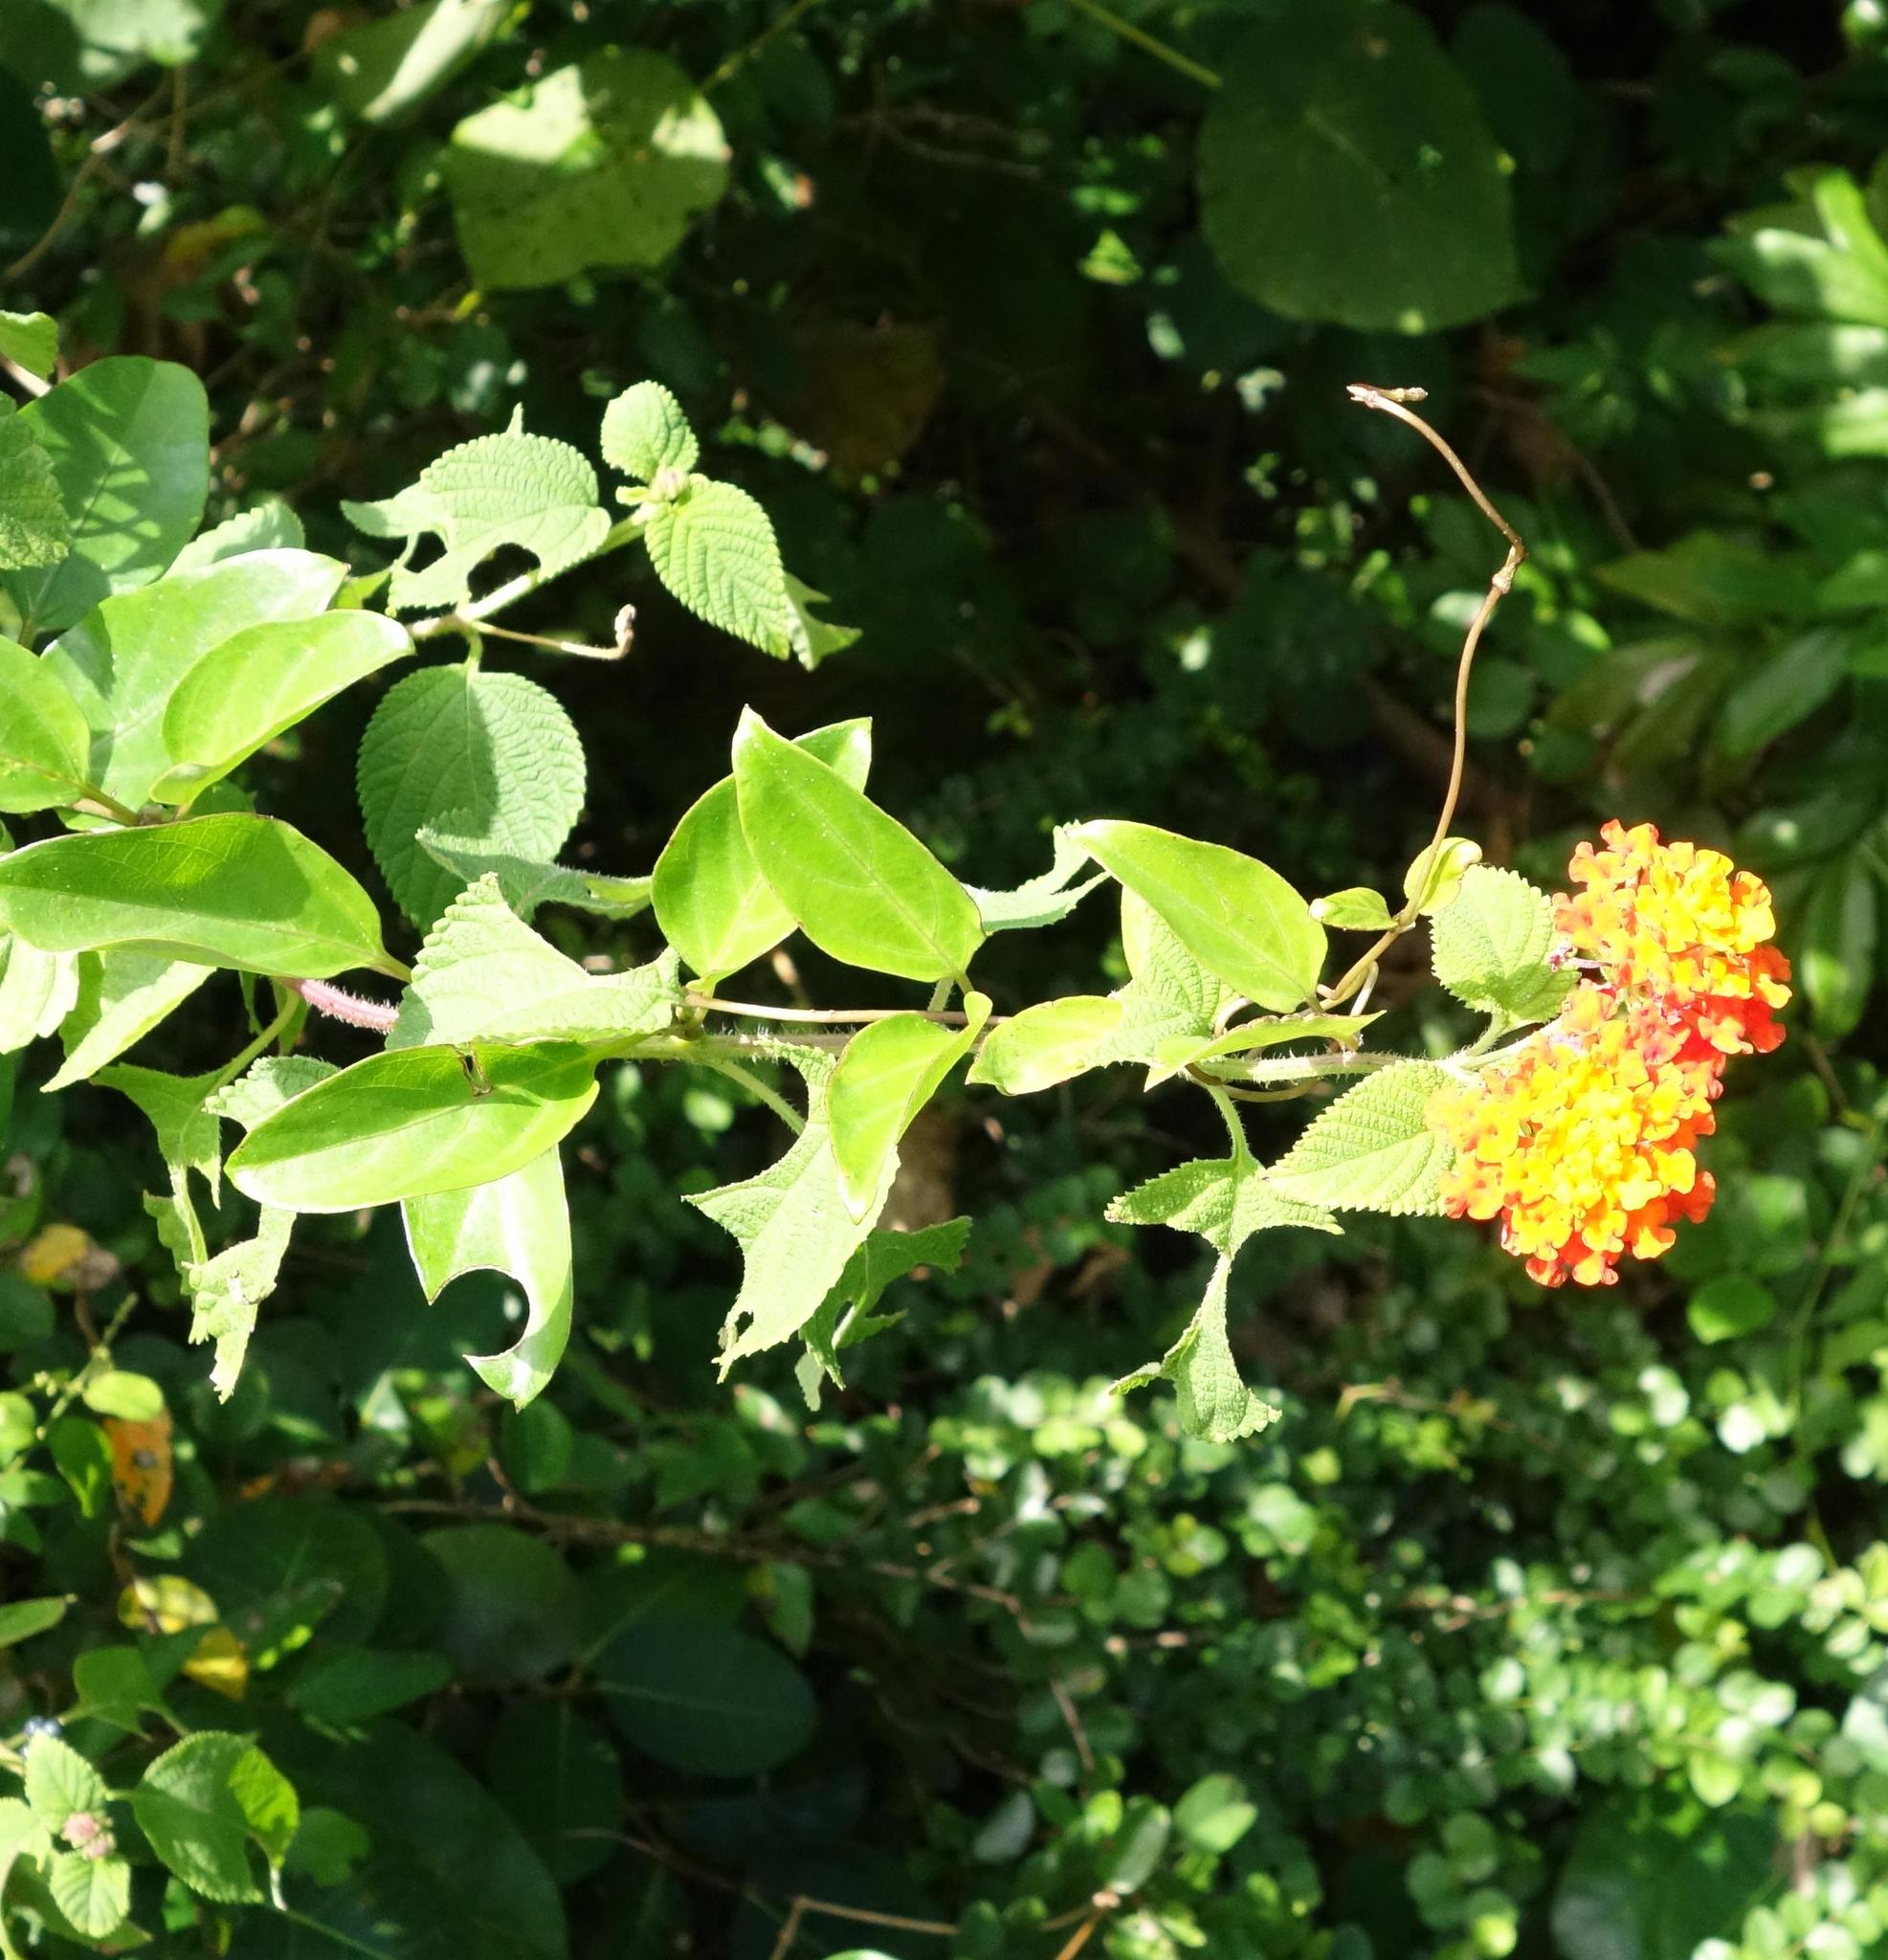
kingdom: Plantae
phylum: Tracheophyta
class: Magnoliopsida
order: Lamiales
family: Verbenaceae
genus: Lantana
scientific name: Lantana camara
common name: Lantana
